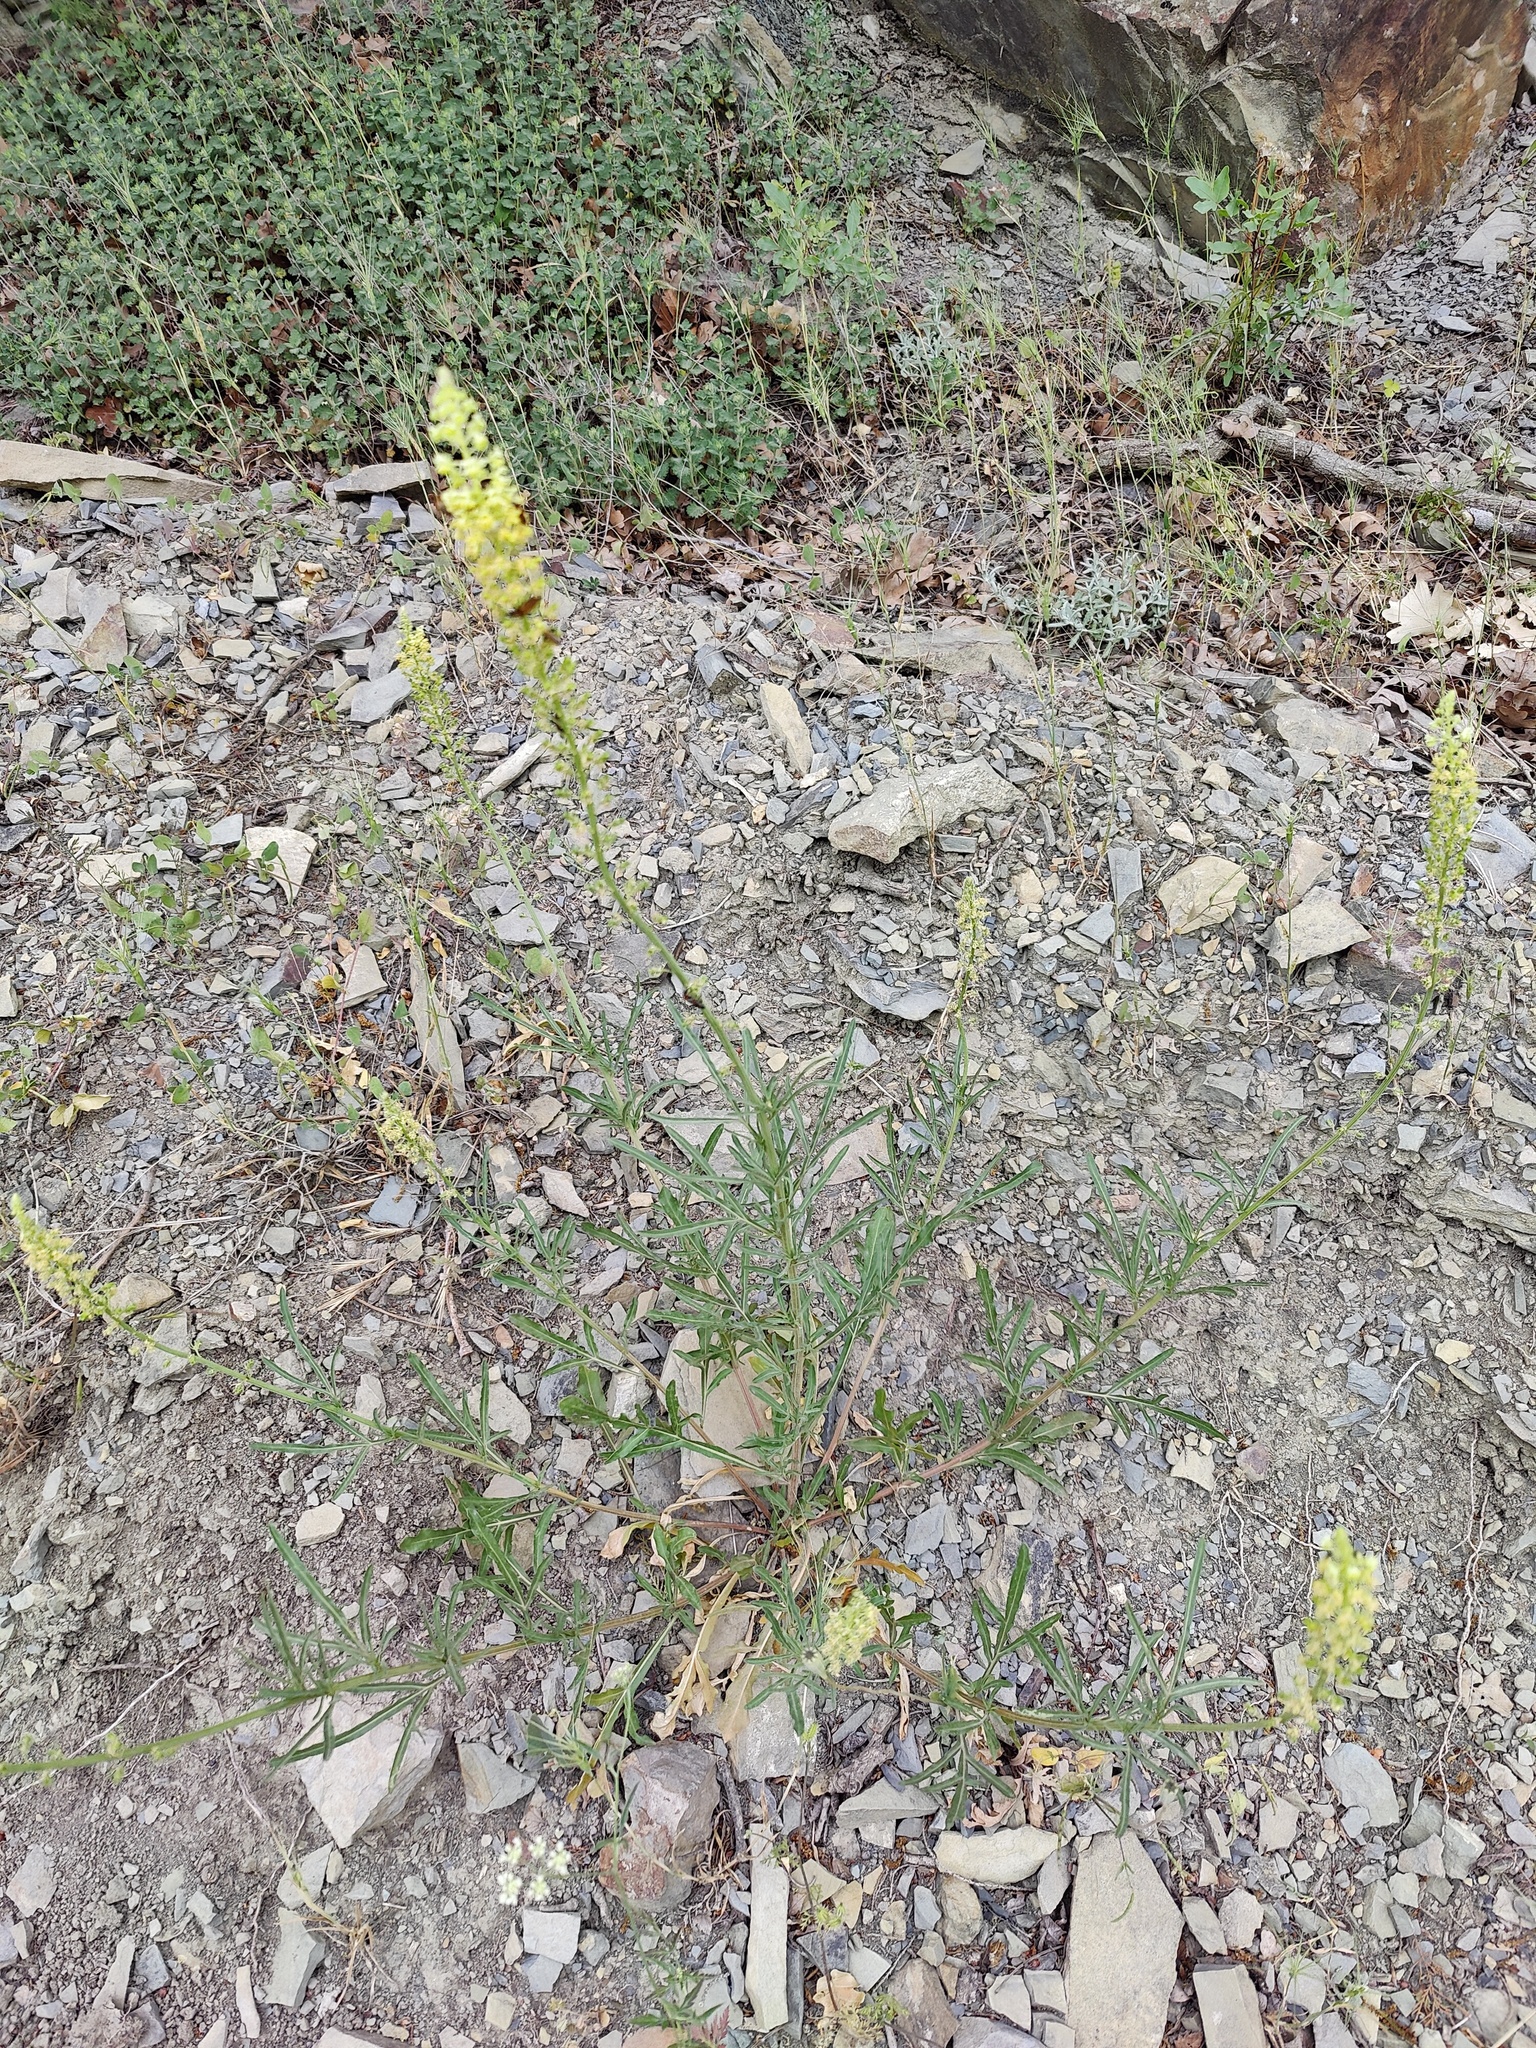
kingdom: Plantae
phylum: Tracheophyta
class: Magnoliopsida
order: Brassicales
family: Resedaceae
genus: Reseda
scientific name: Reseda lutea
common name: Wild mignonette
